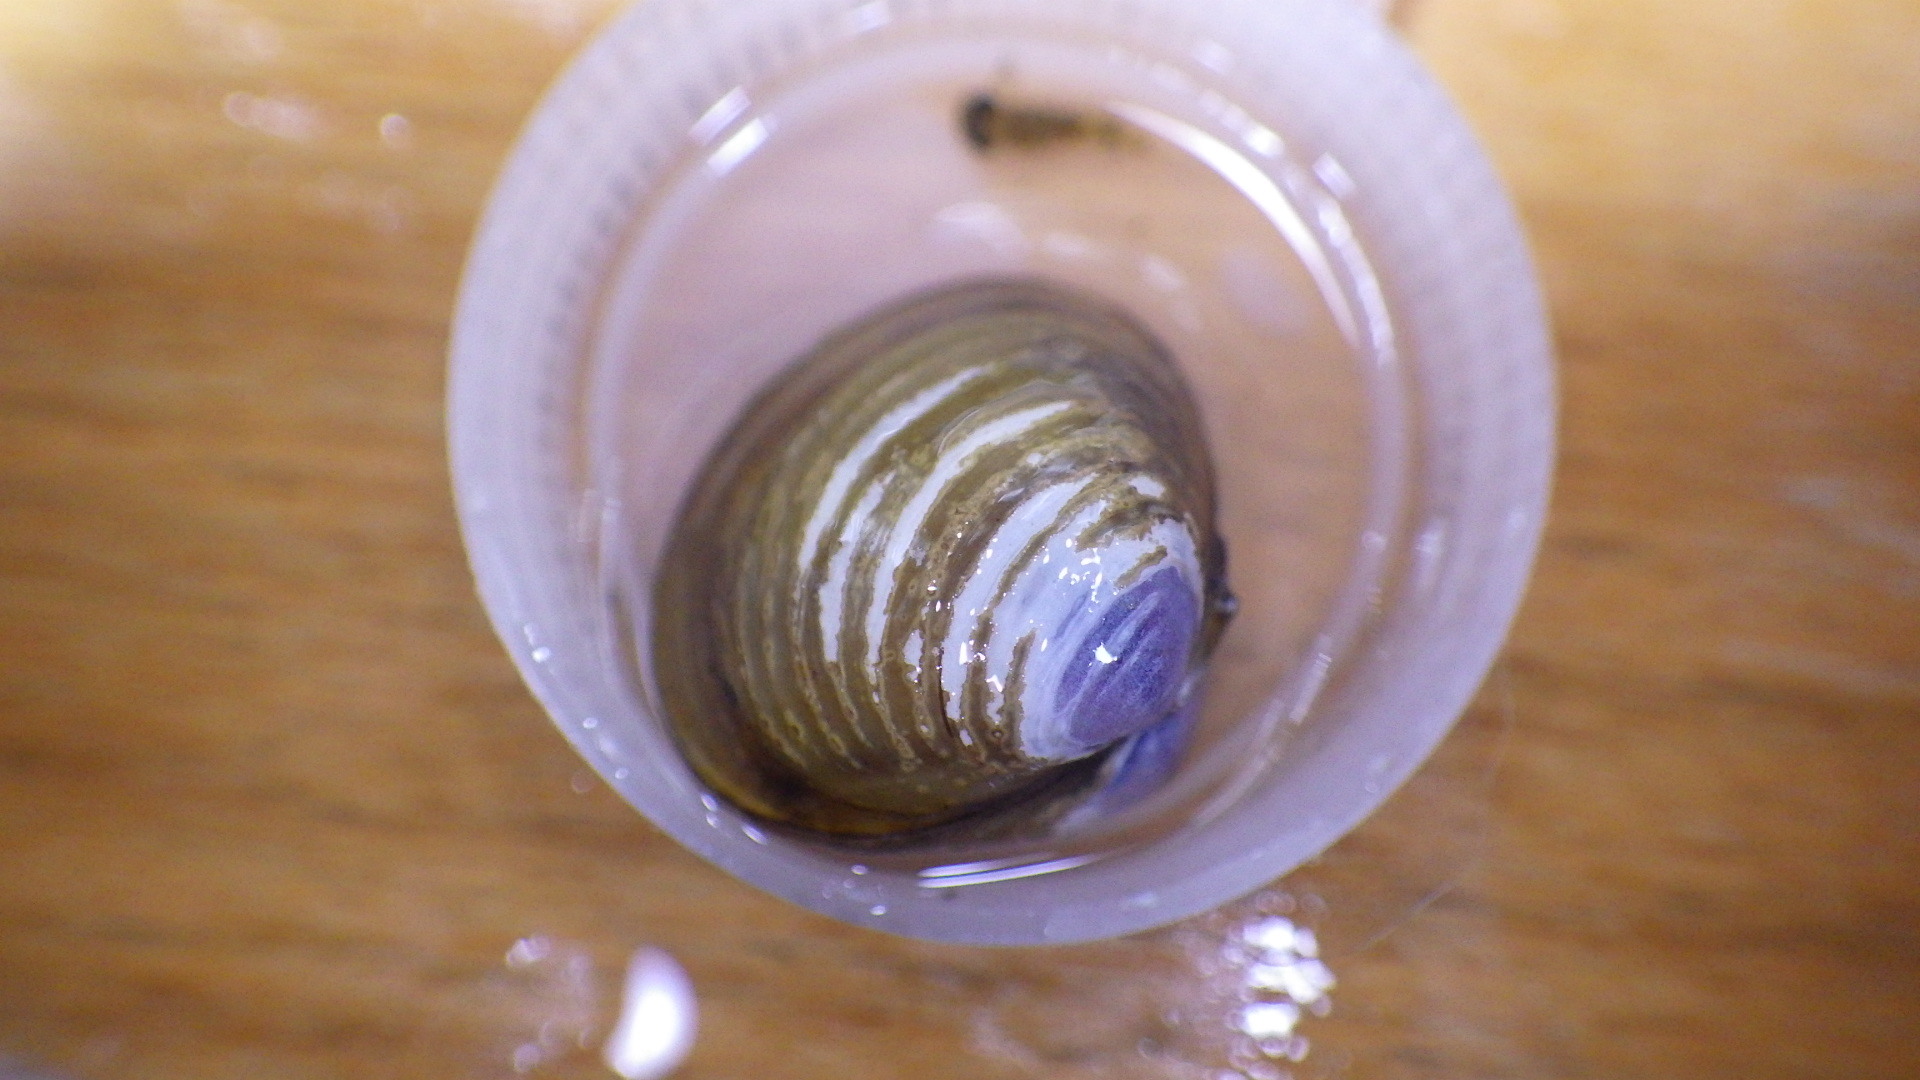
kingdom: Animalia
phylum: Mollusca
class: Bivalvia
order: Venerida
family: Cyrenidae
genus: Corbicula
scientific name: Corbicula fluminea
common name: Asian clam
